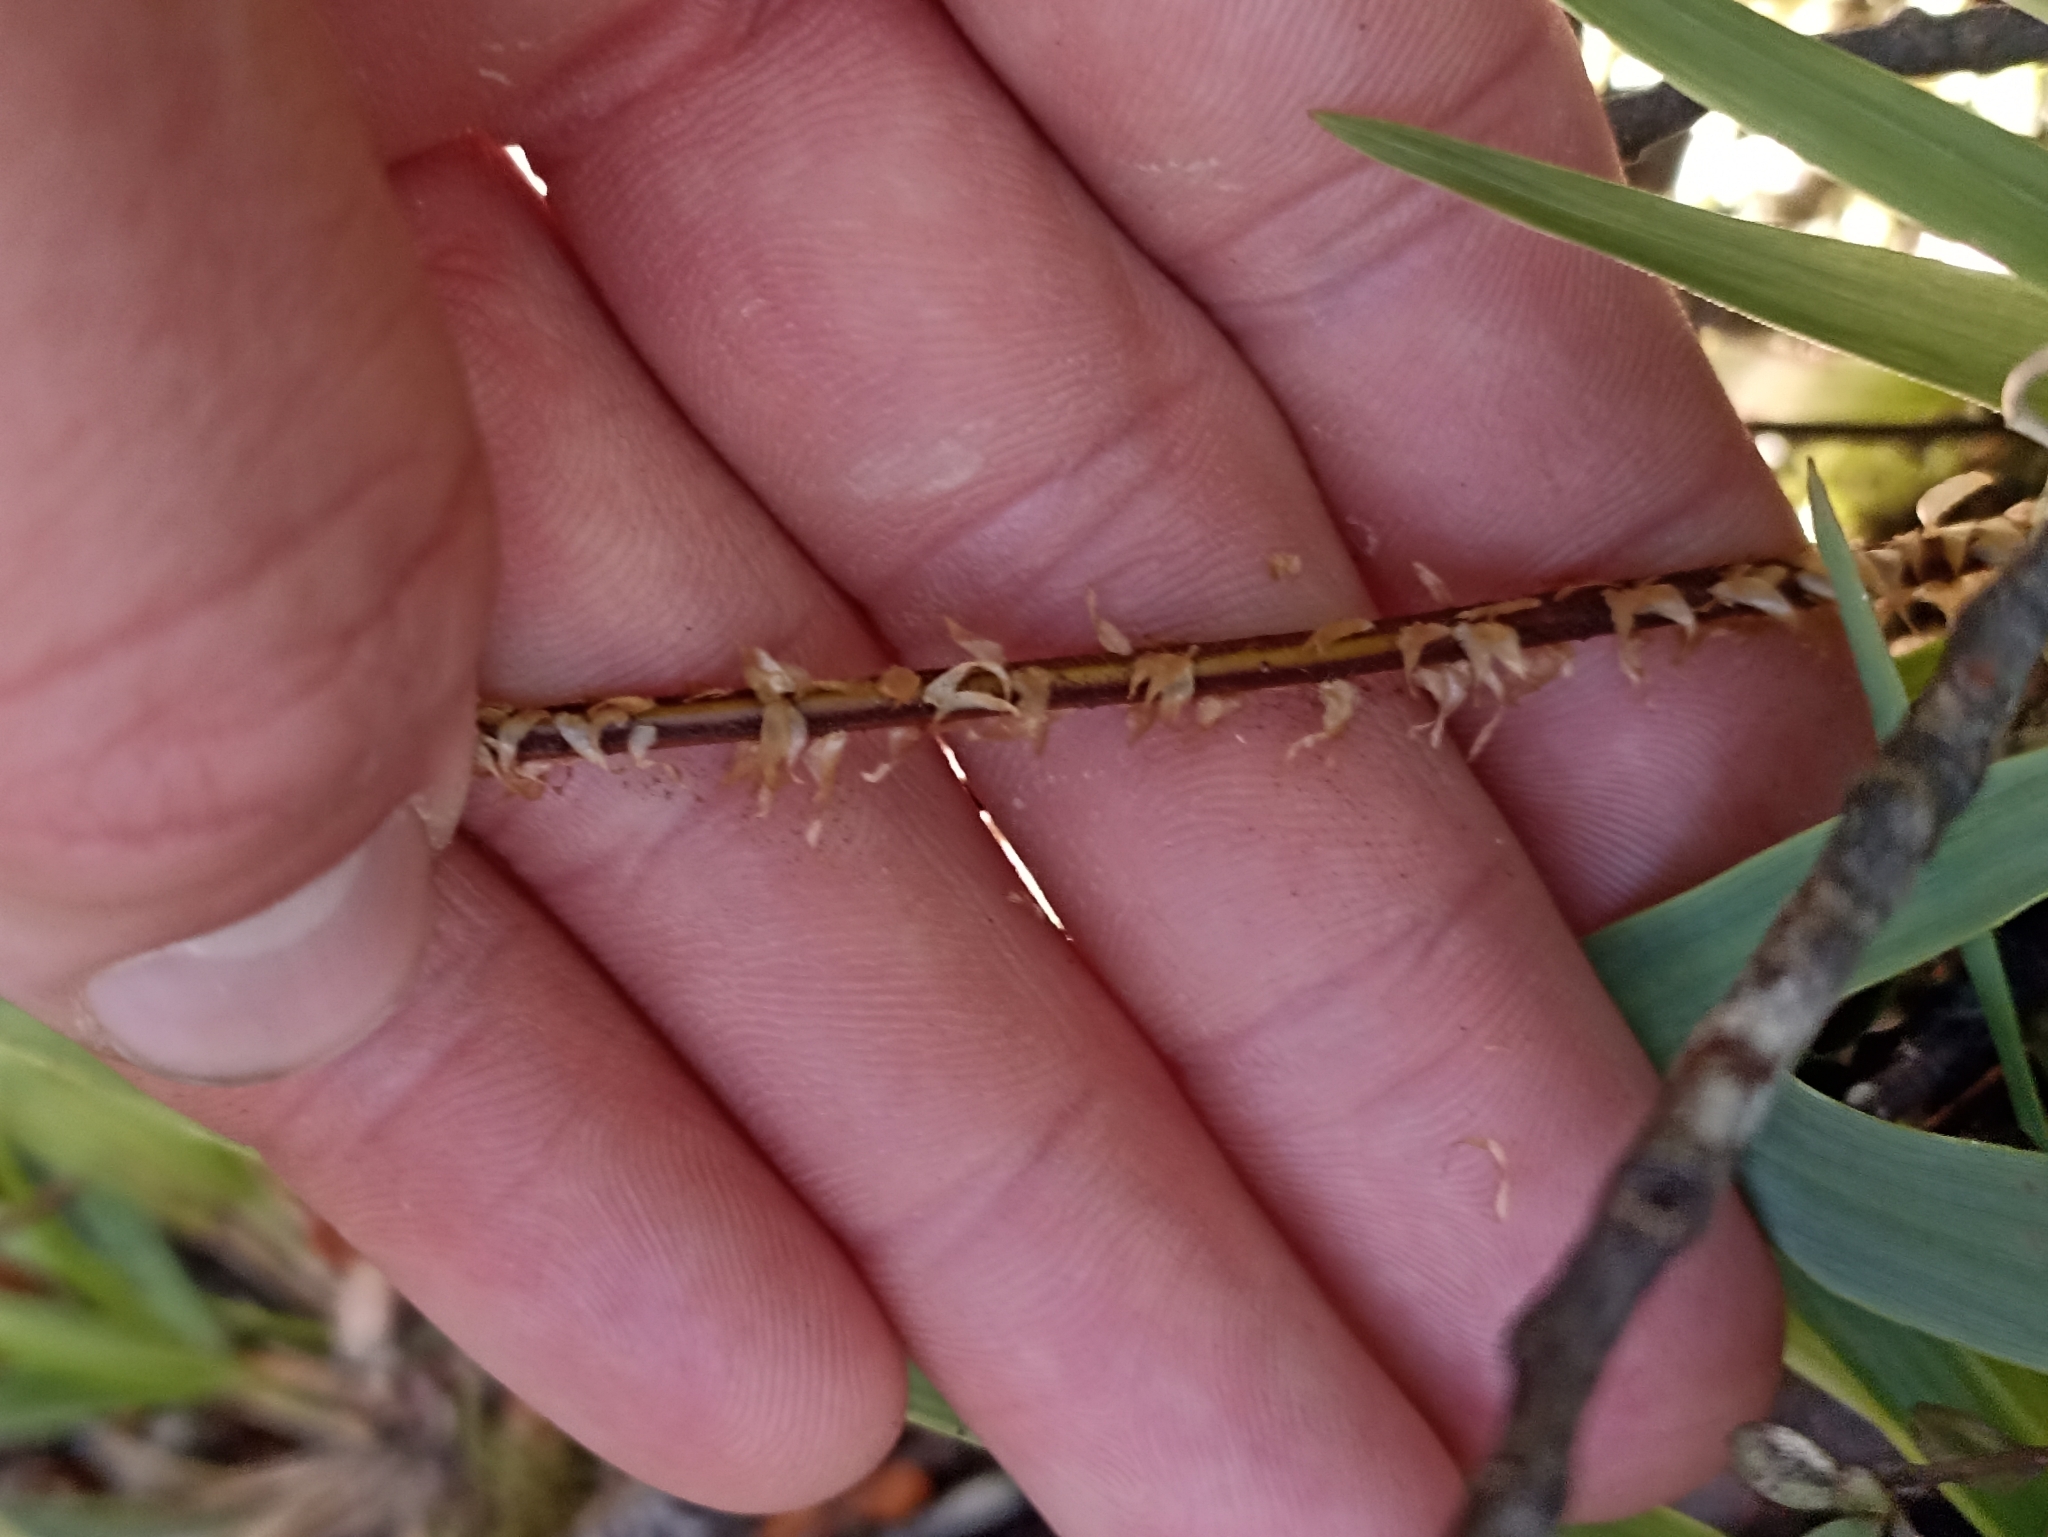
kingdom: Plantae
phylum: Tracheophyta
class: Polypodiopsida
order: Cyatheales
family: Cyatheaceae
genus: Alsophila
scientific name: Alsophila colensoi
